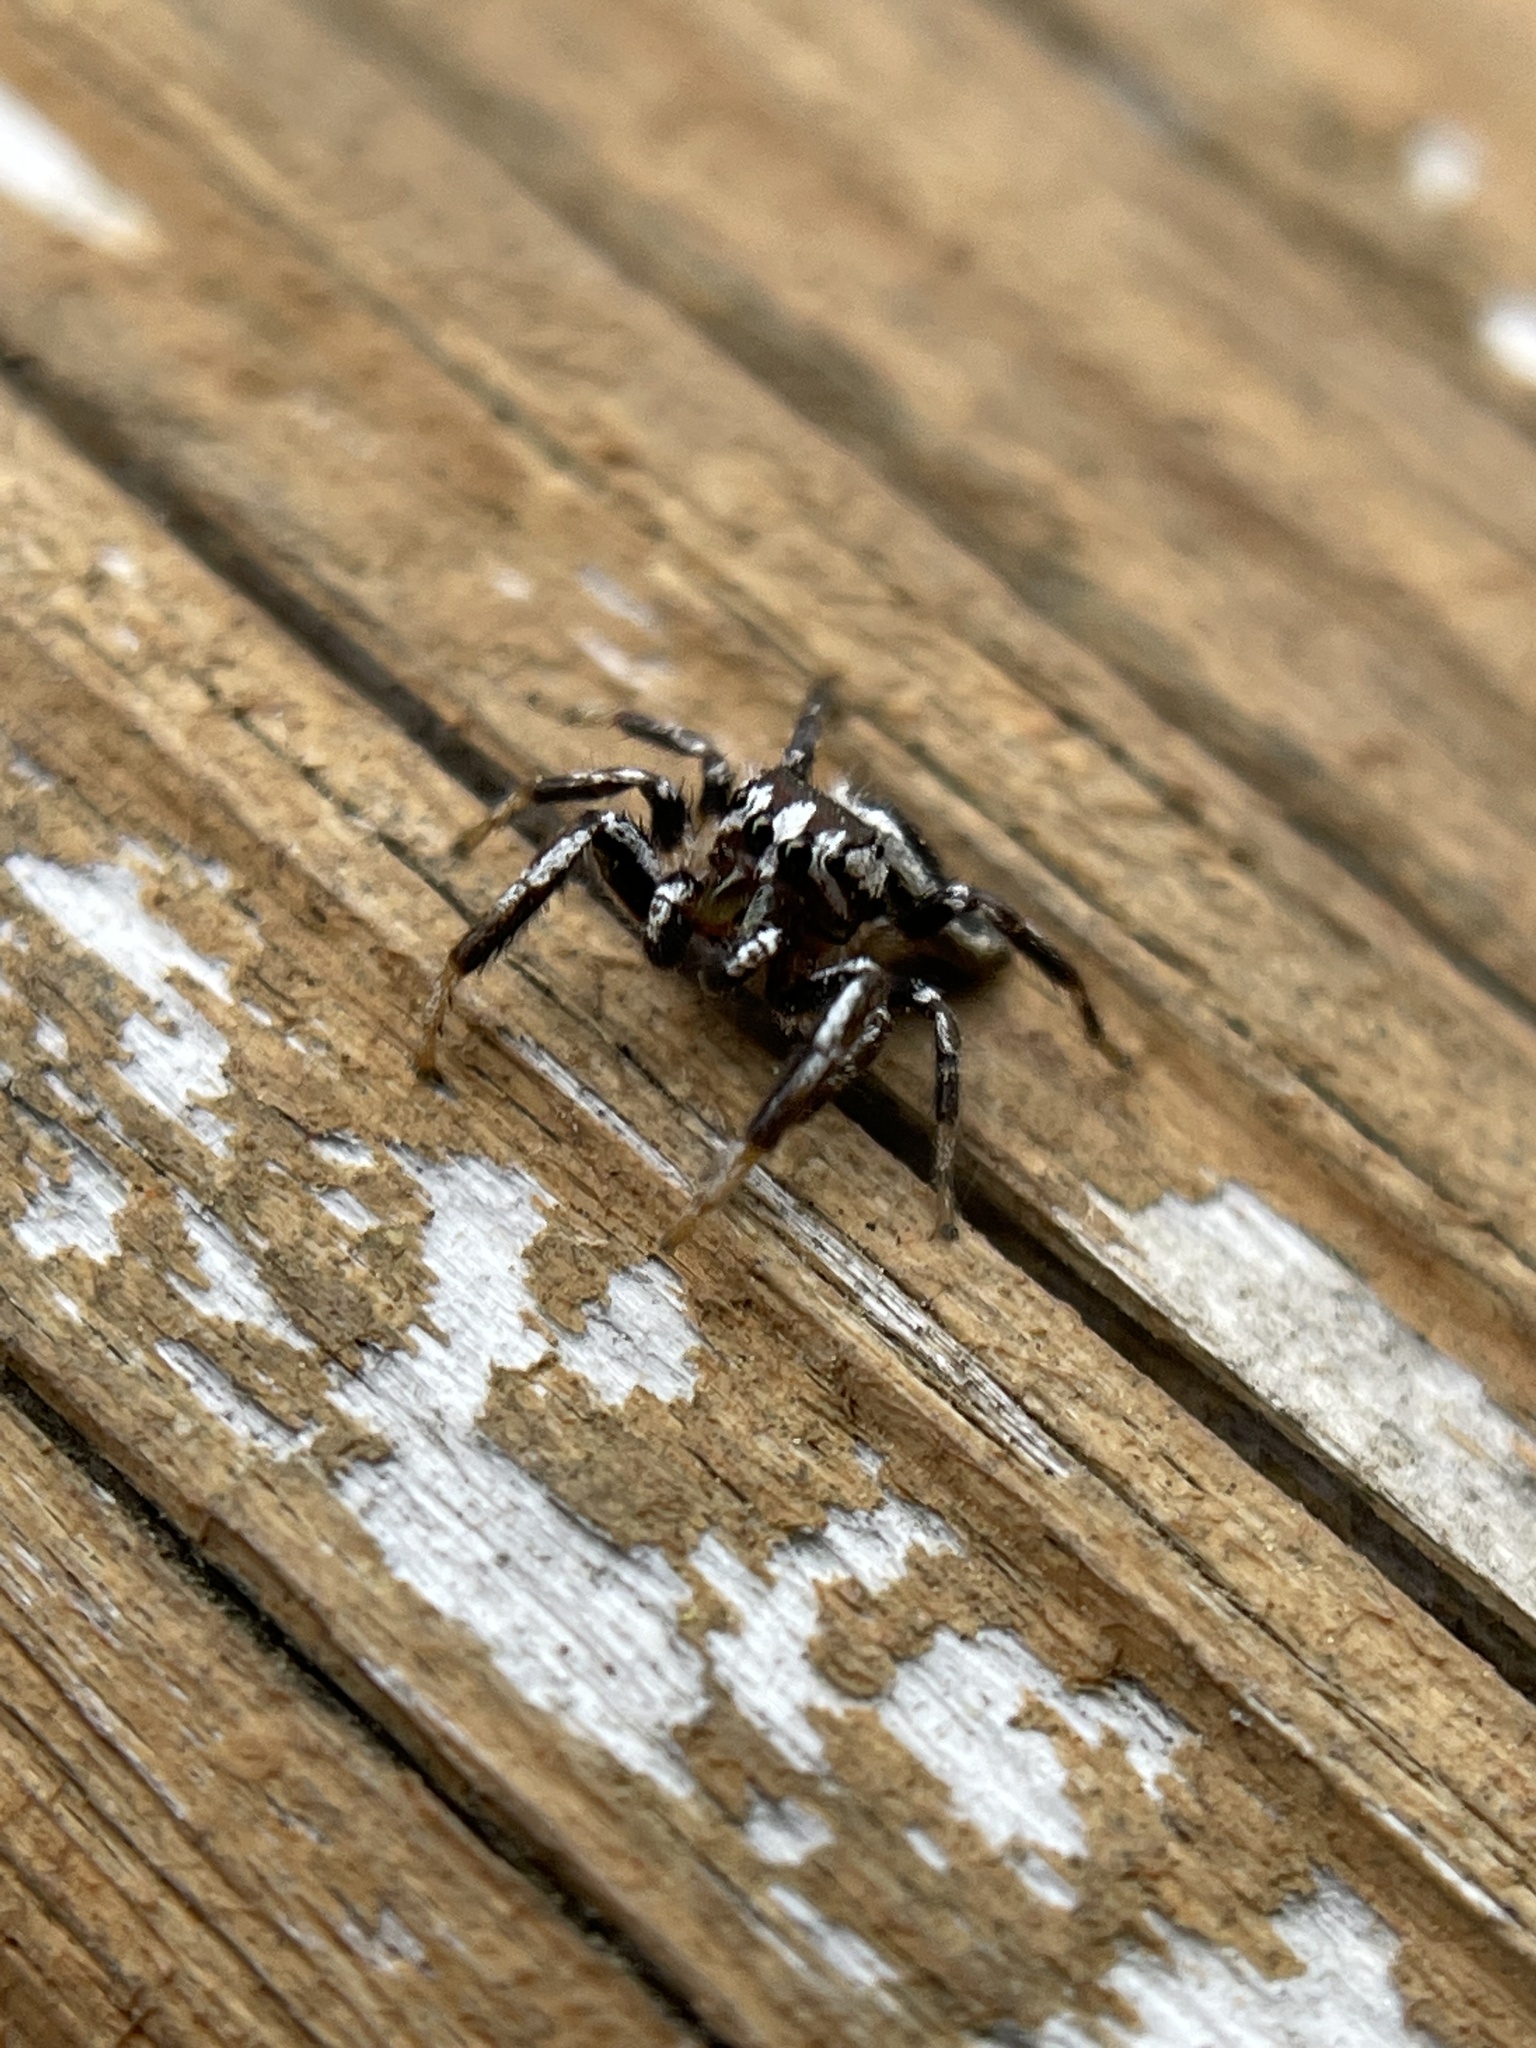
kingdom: Animalia
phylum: Arthropoda
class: Arachnida
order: Araneae
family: Salticidae
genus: Pelegrina
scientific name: Pelegrina exigua
